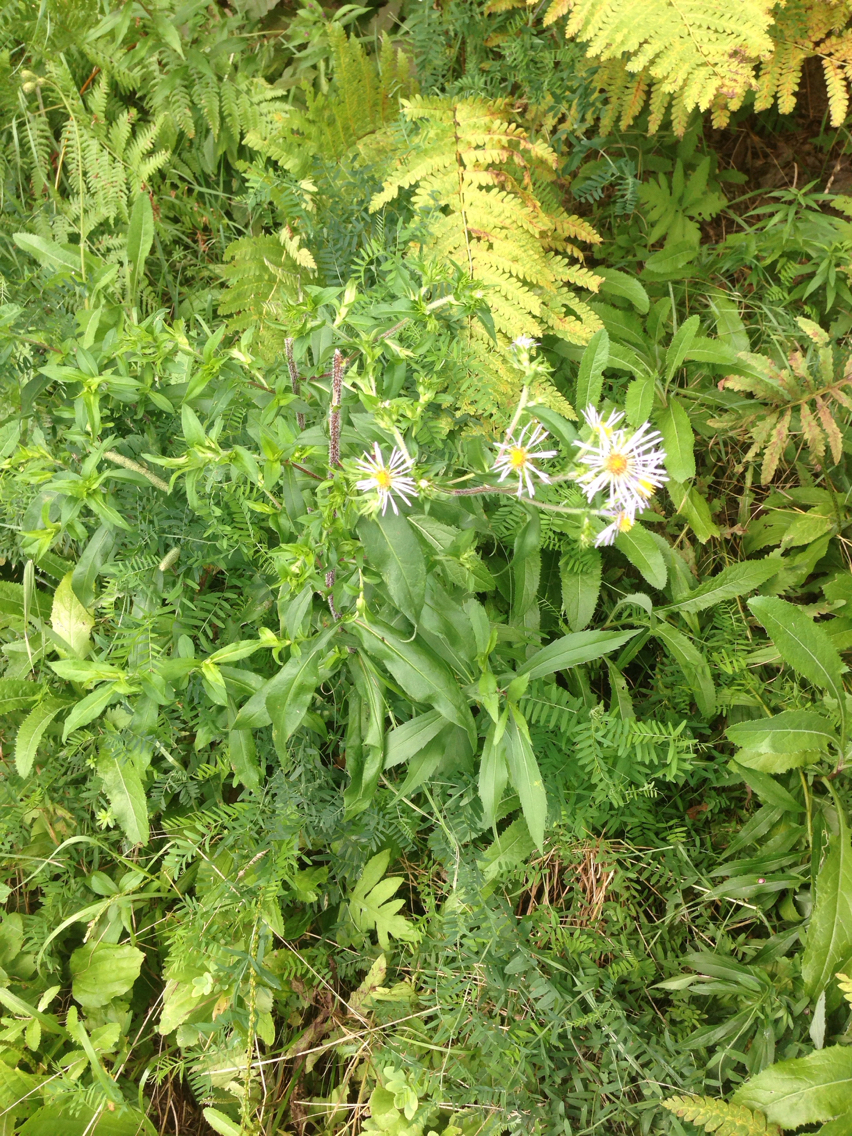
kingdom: Plantae
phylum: Tracheophyta
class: Magnoliopsida
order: Asterales
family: Asteraceae
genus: Symphyotrichum
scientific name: Symphyotrichum puniceum
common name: Bog aster
